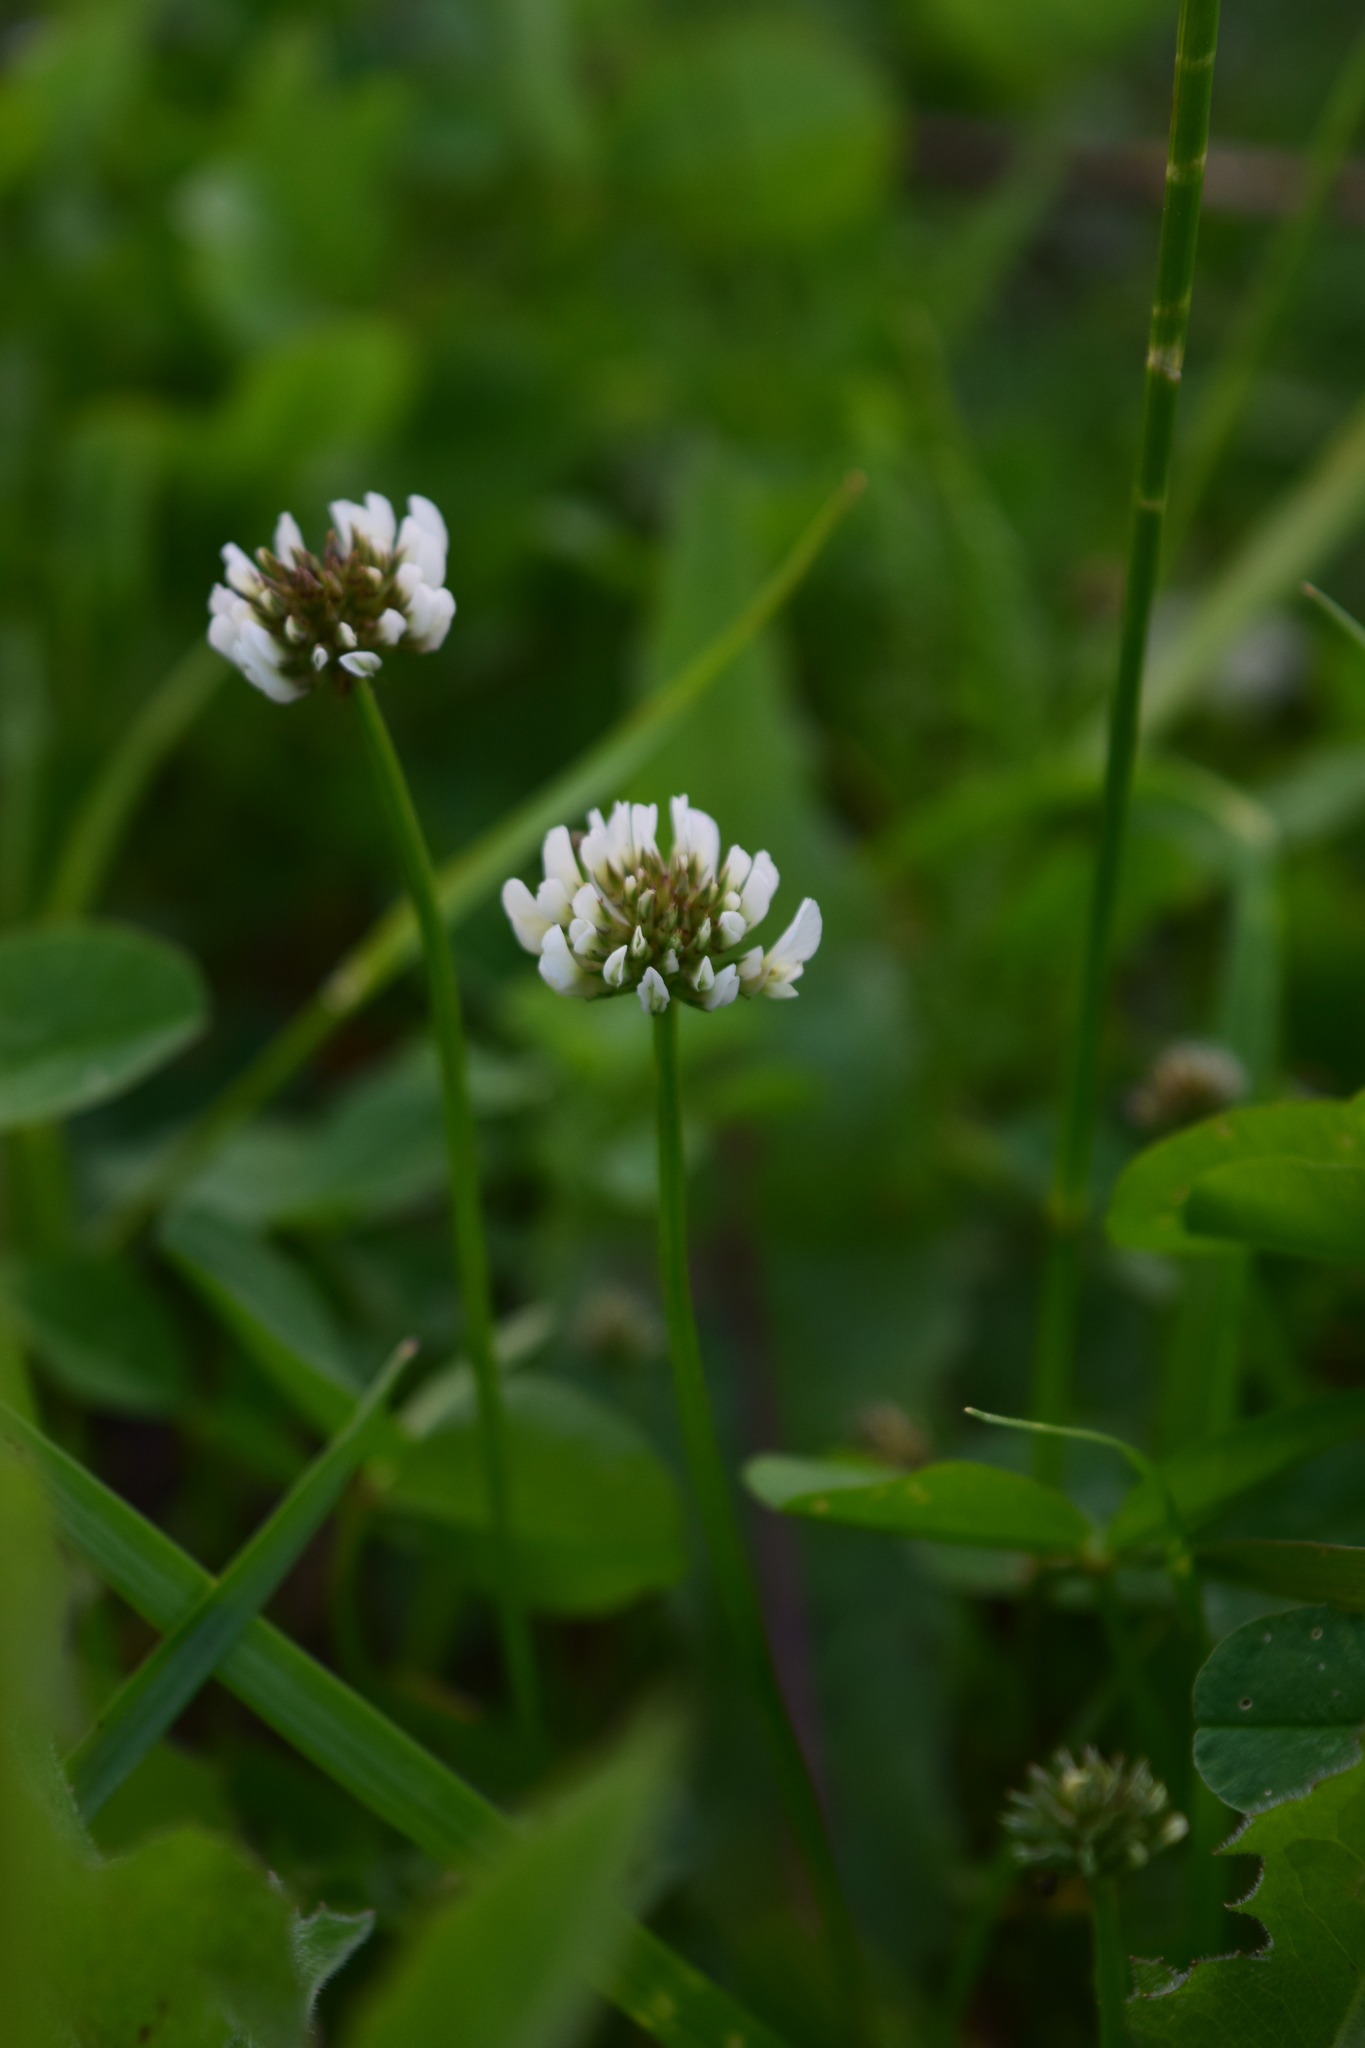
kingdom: Plantae
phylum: Tracheophyta
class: Magnoliopsida
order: Fabales
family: Fabaceae
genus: Trifolium
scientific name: Trifolium repens
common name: White clover
